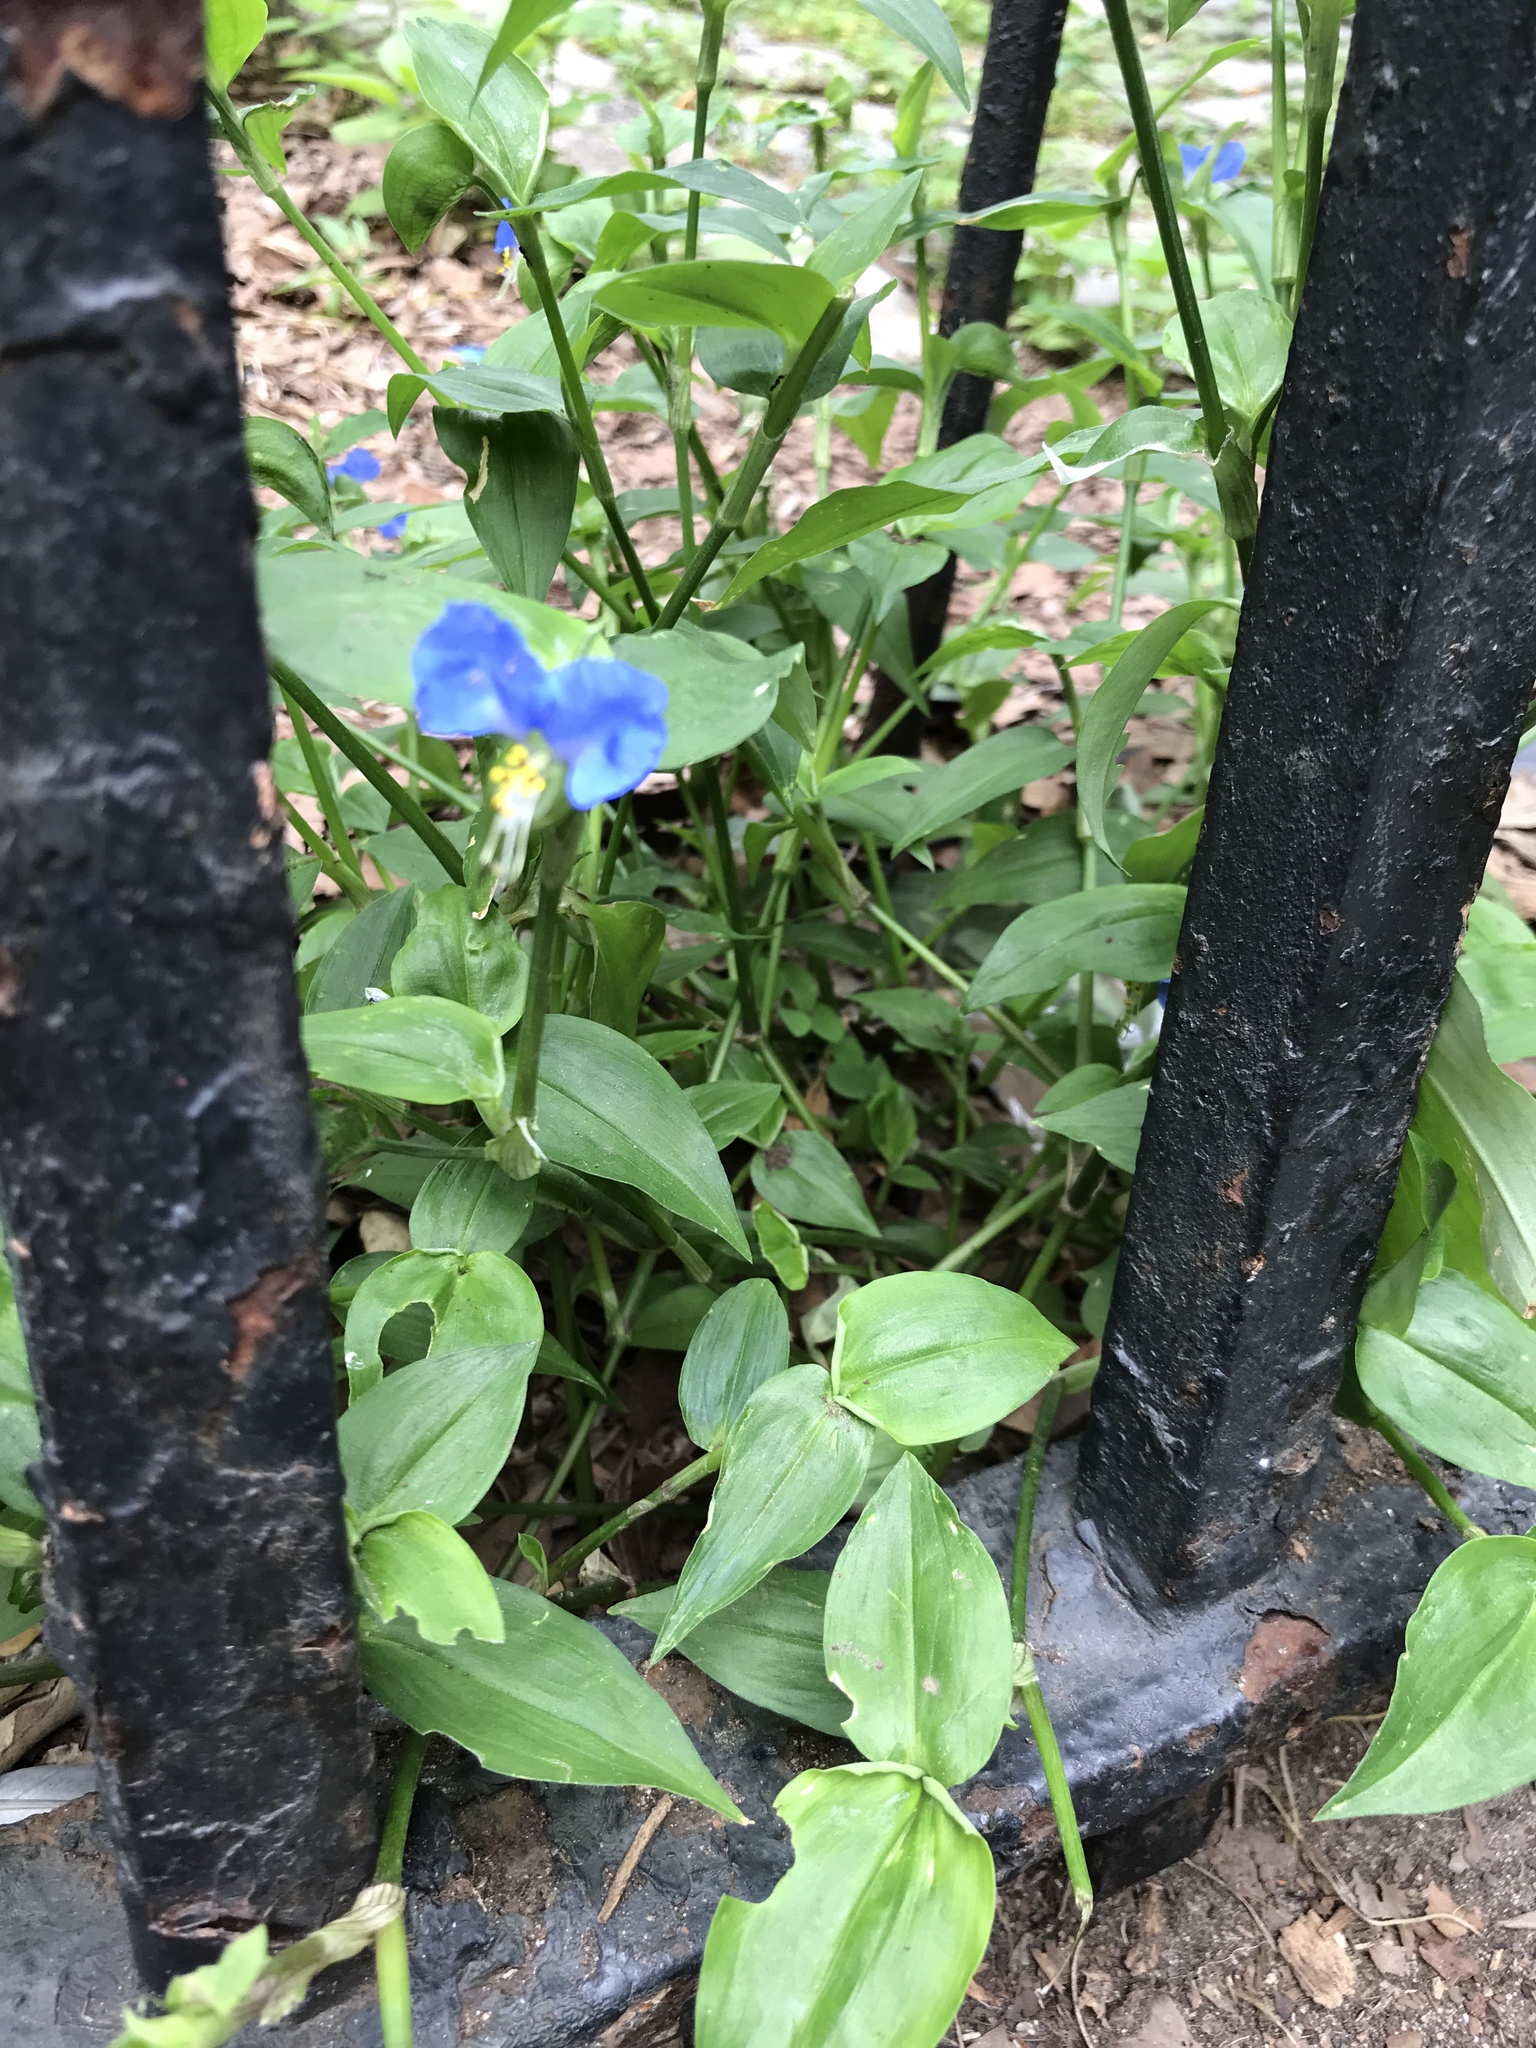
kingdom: Plantae
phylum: Tracheophyta
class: Liliopsida
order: Commelinales
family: Commelinaceae
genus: Commelina
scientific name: Commelina communis
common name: Asiatic dayflower
